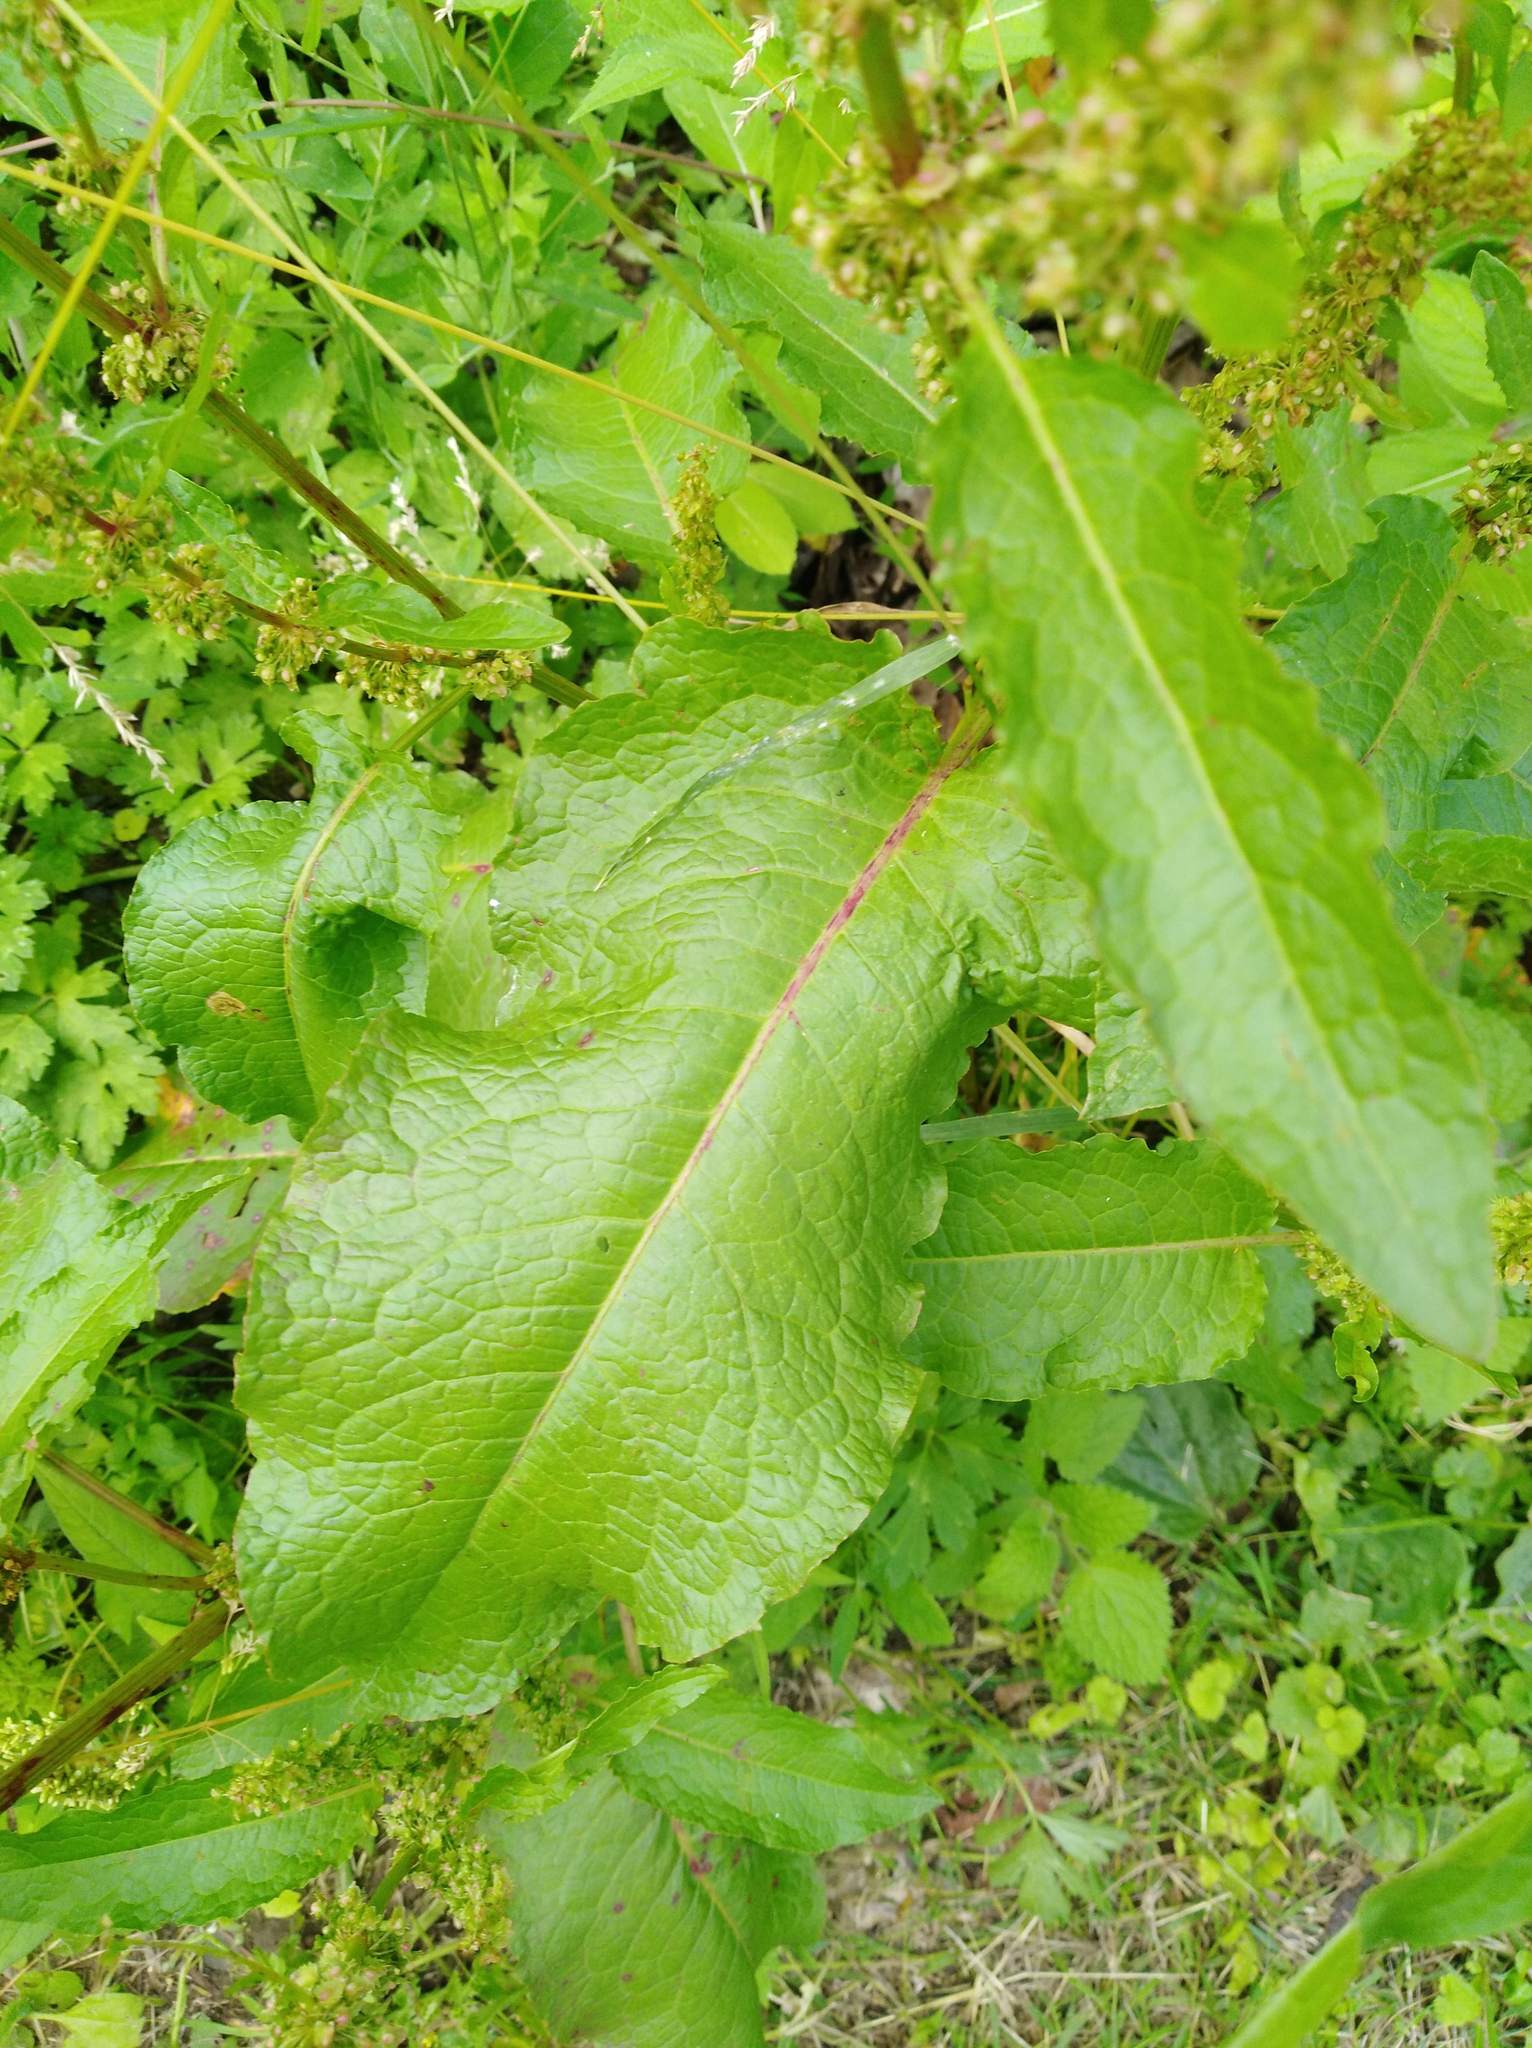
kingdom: Plantae
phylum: Tracheophyta
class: Magnoliopsida
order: Caryophyllales
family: Polygonaceae
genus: Rumex
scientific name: Rumex obtusifolius
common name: Bitter dock
